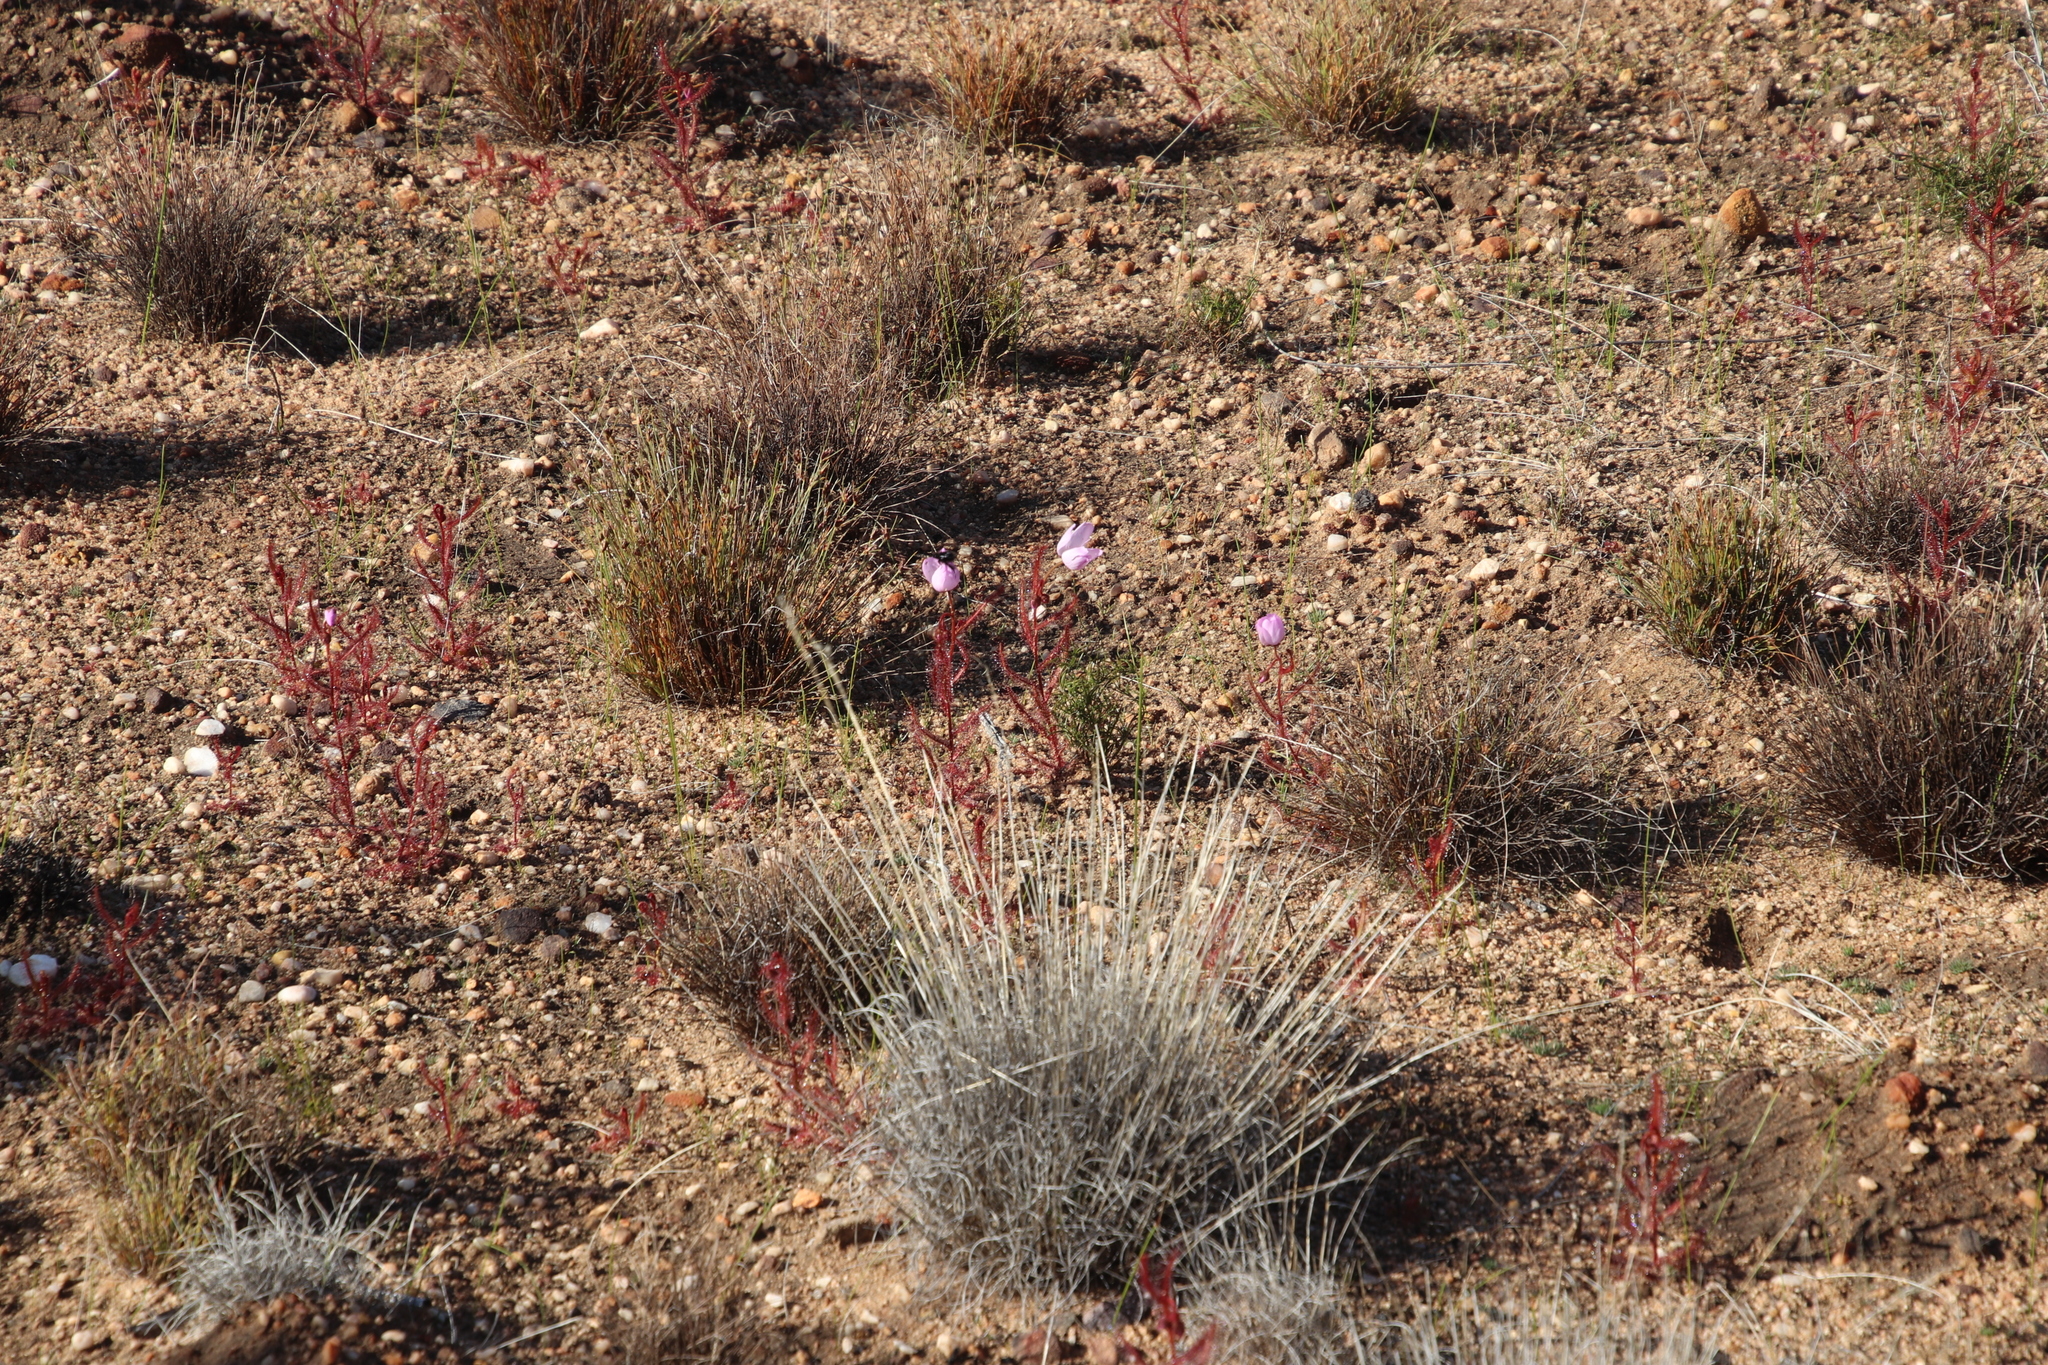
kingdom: Plantae
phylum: Tracheophyta
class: Magnoliopsida
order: Caryophyllales
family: Droseraceae
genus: Drosera
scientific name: Drosera cistiflora
